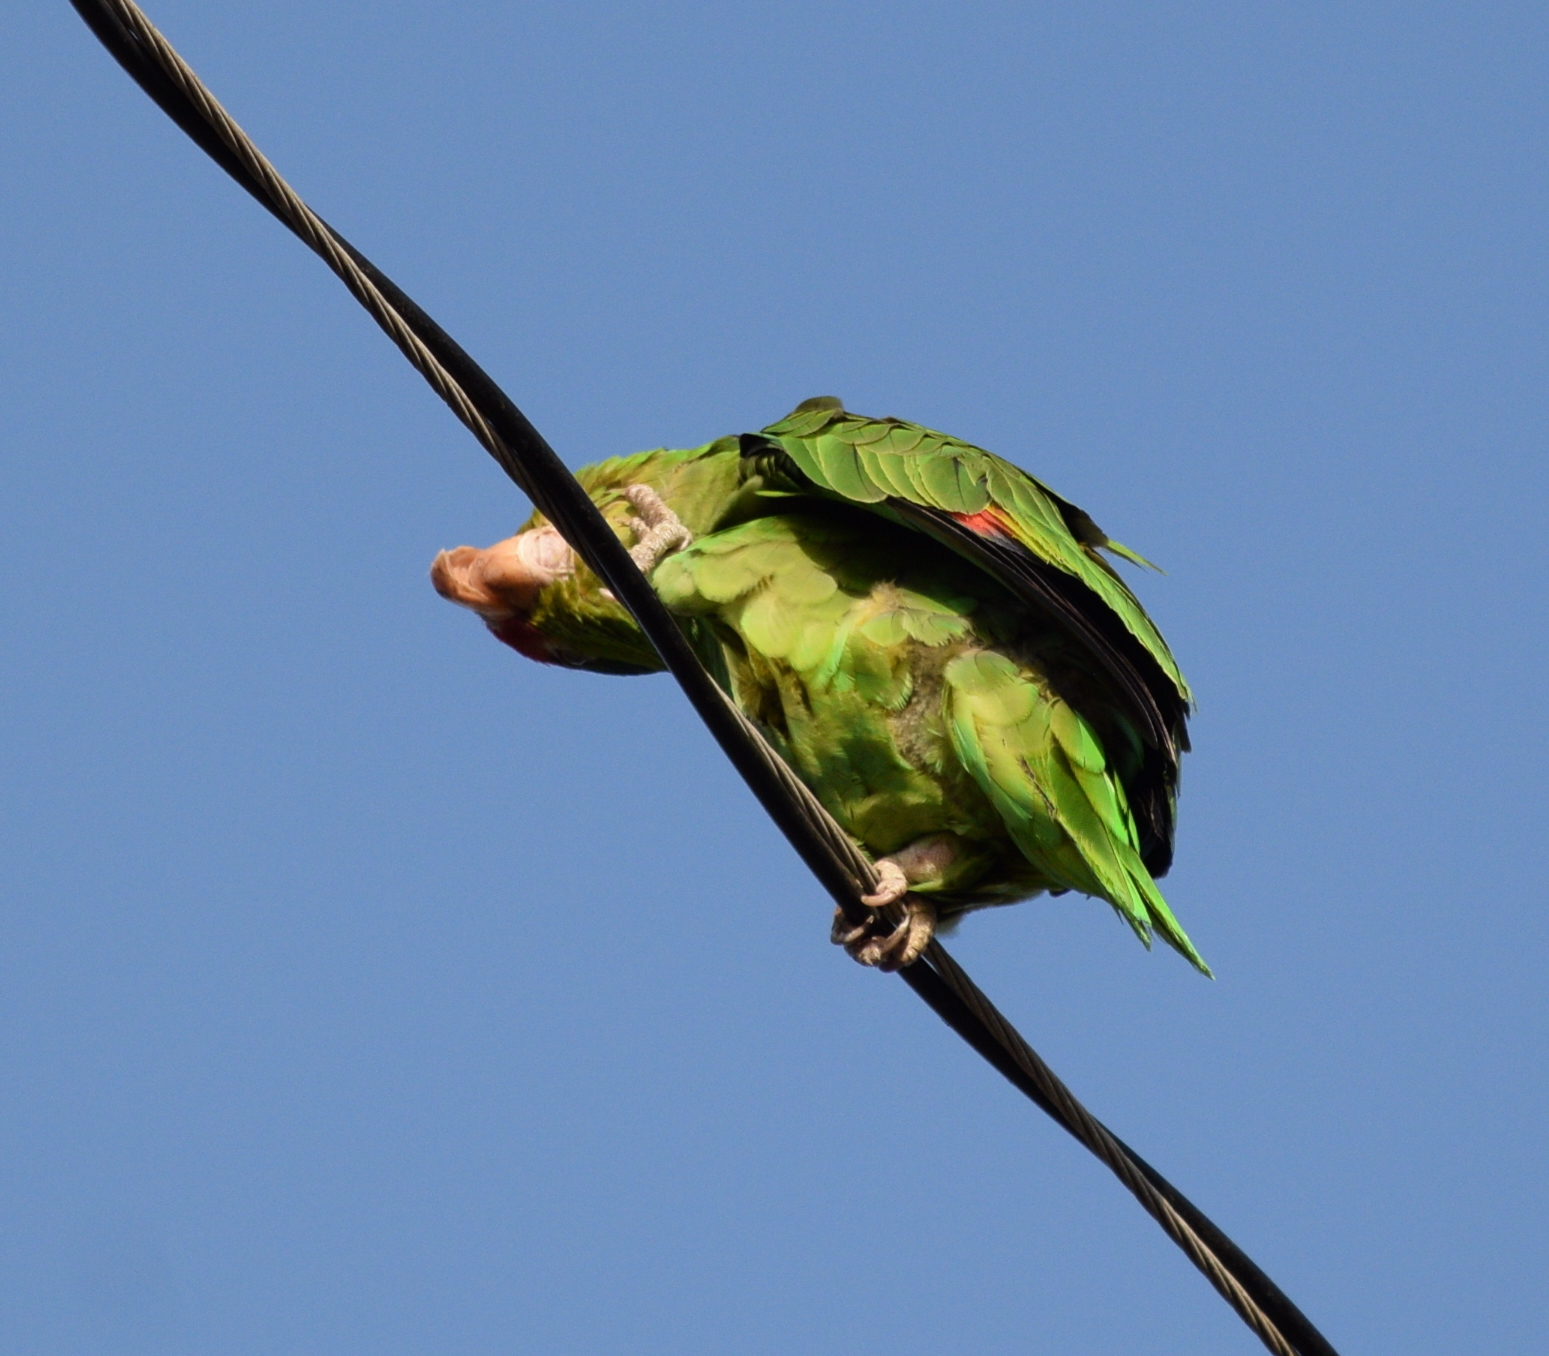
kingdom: Animalia
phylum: Chordata
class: Aves
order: Psittaciformes
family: Psittacidae
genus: Amazona
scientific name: Amazona viridigenalis
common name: Red-crowned amazon
